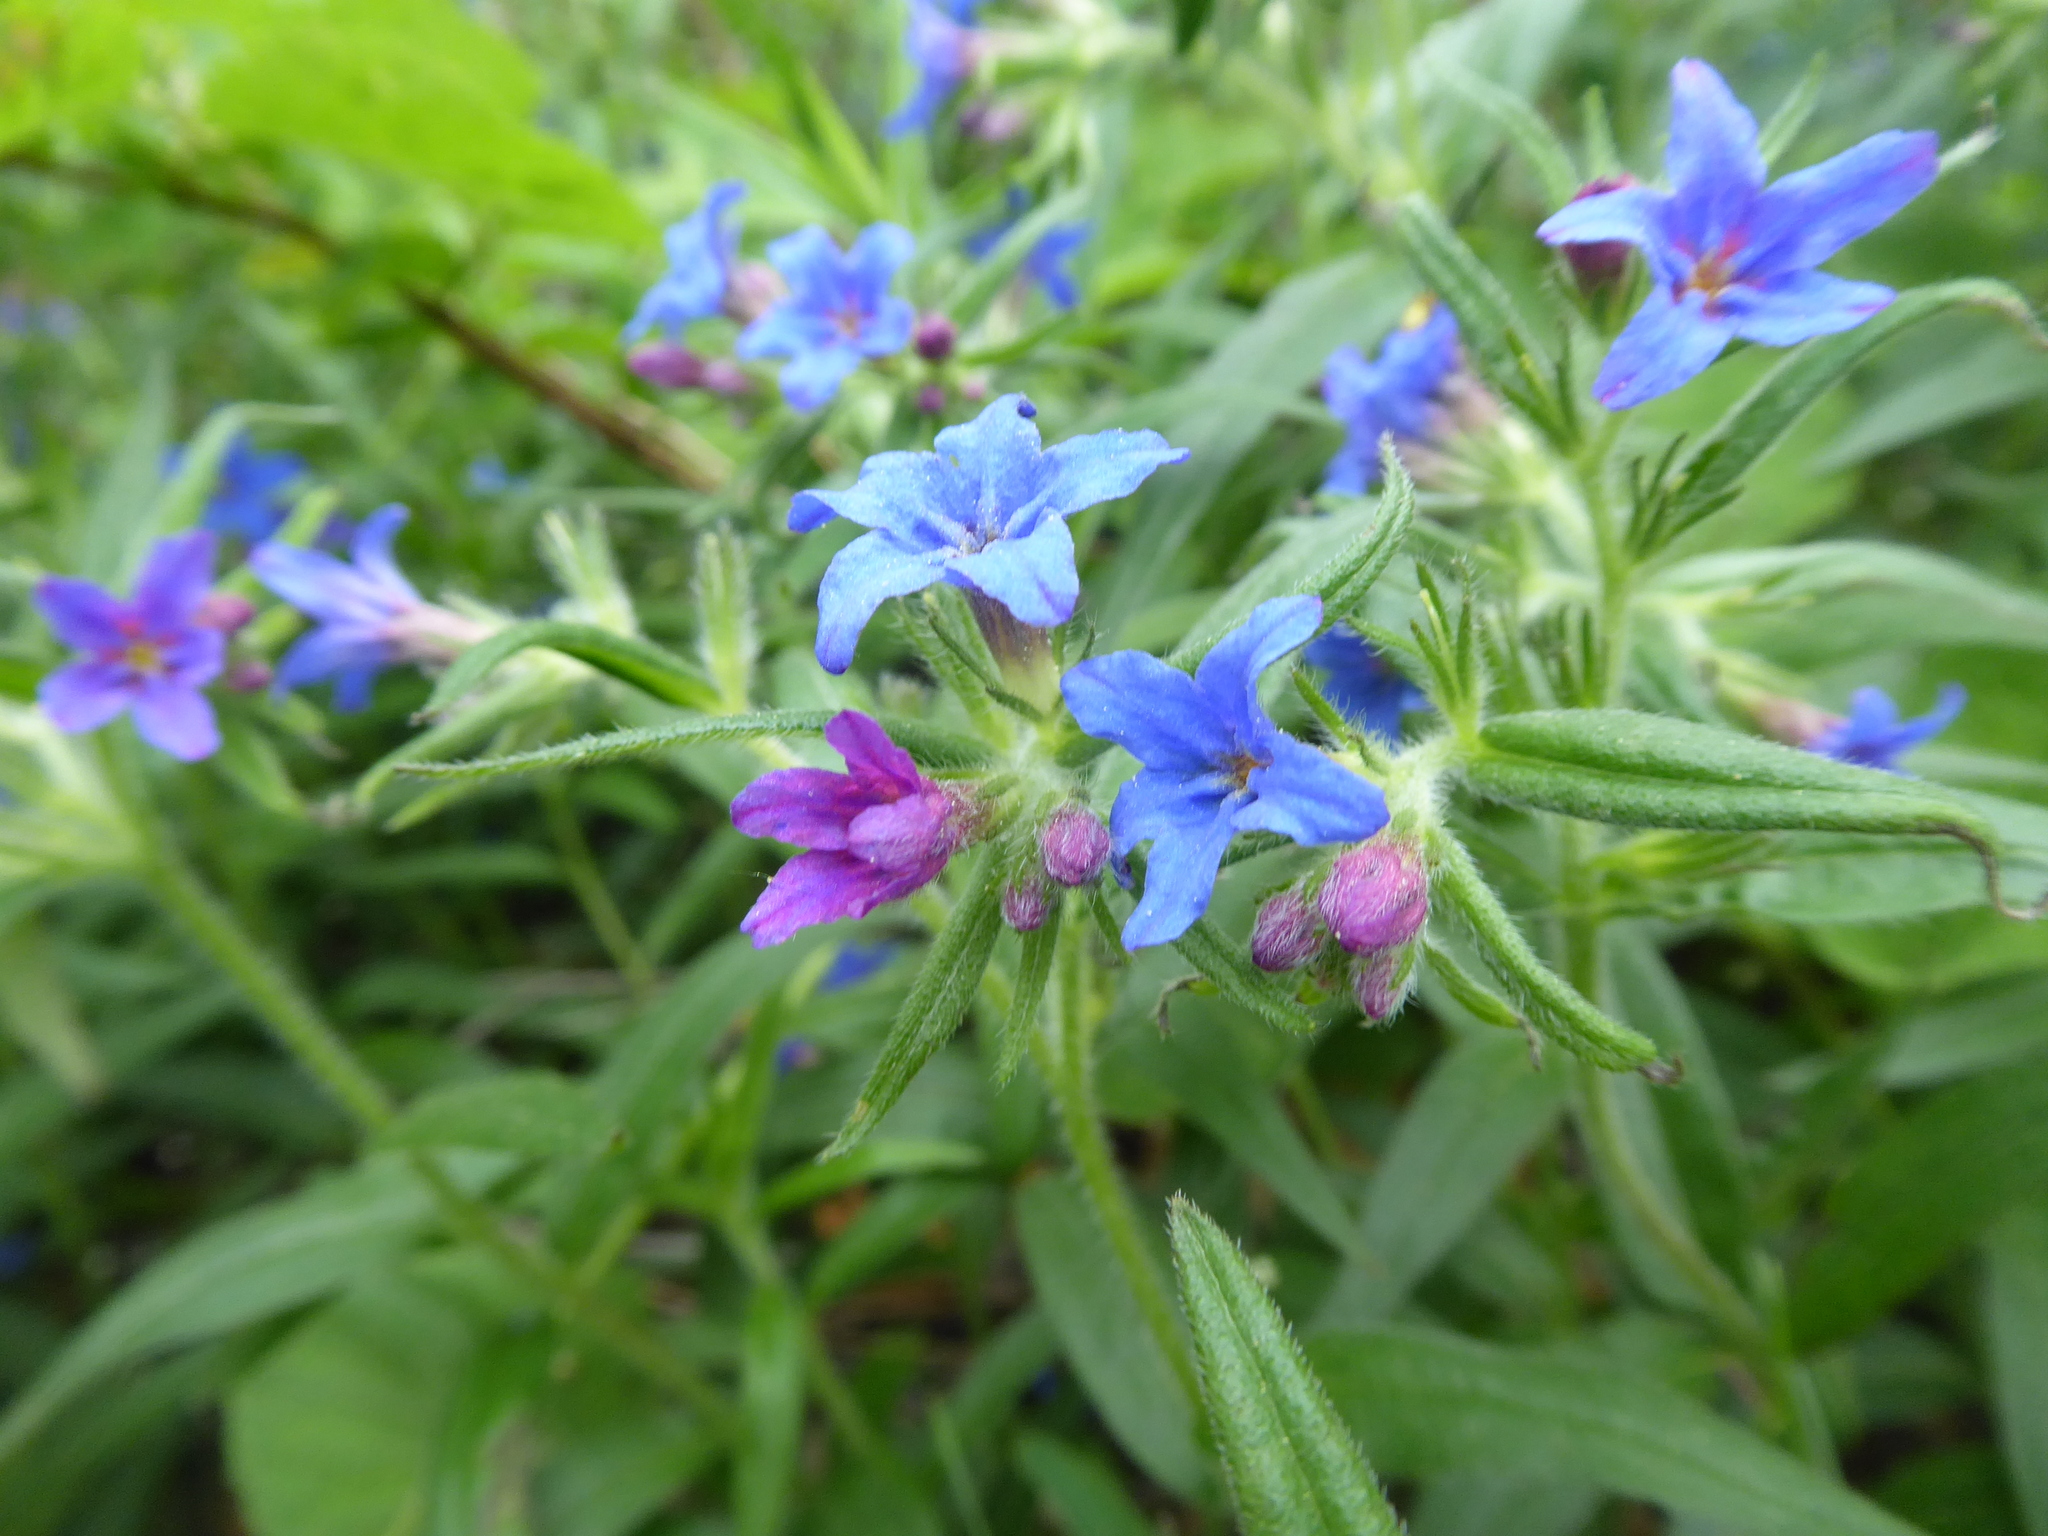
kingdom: Plantae
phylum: Tracheophyta
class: Magnoliopsida
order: Boraginales
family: Boraginaceae
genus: Aegonychon
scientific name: Aegonychon purpurocaeruleum
